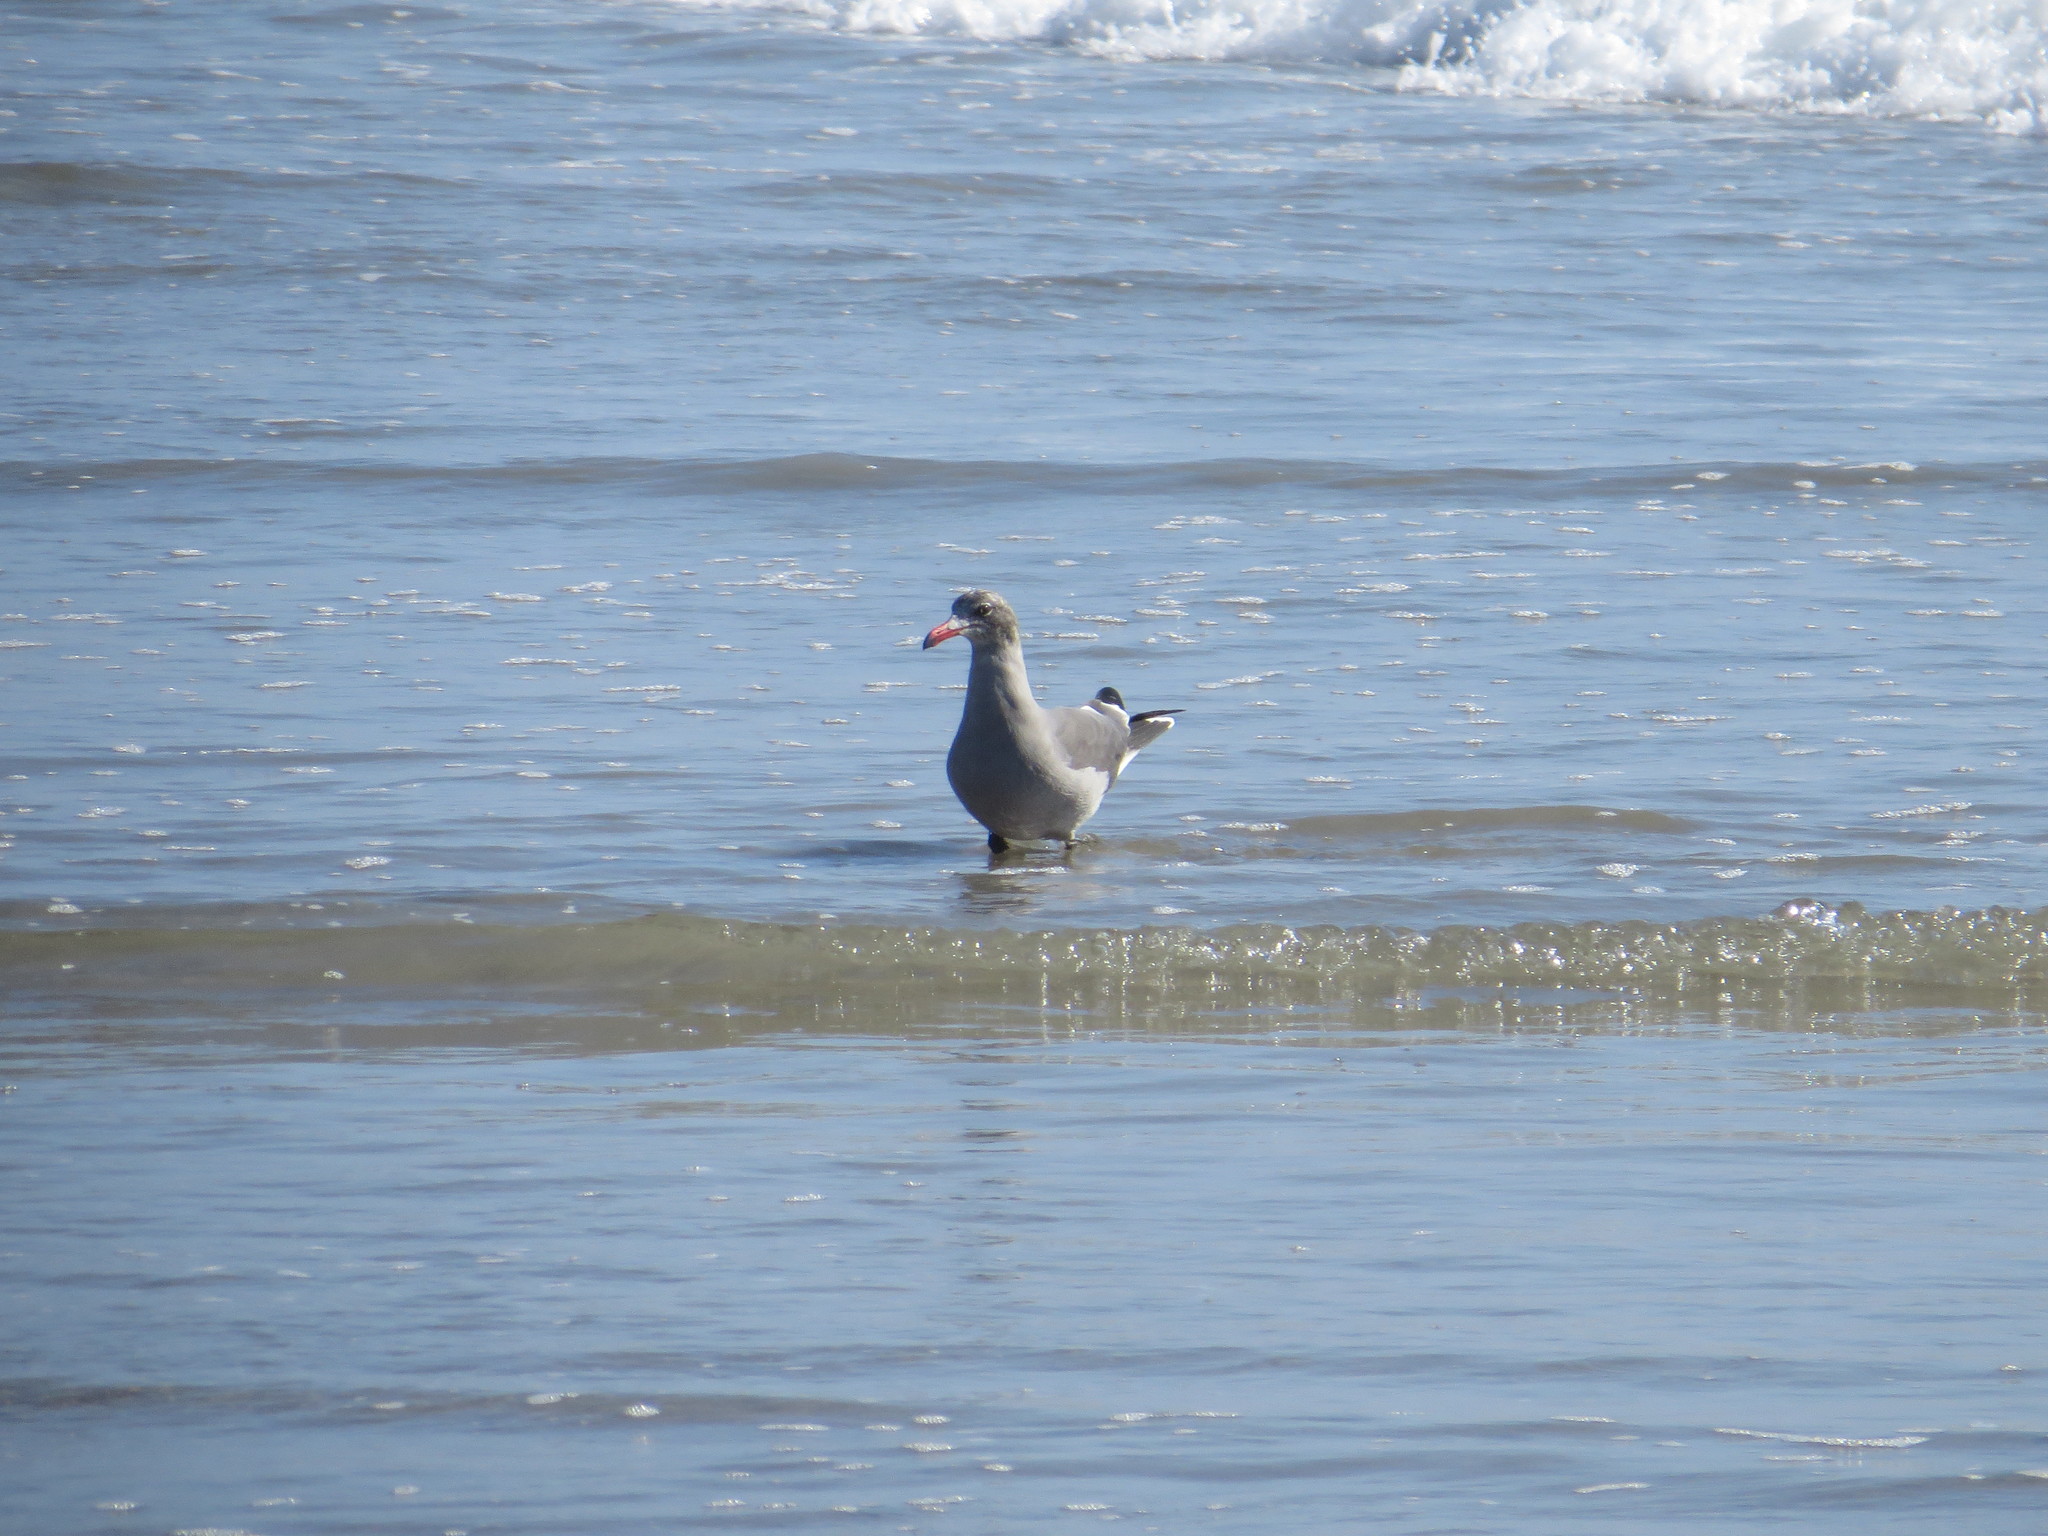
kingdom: Animalia
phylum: Chordata
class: Aves
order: Charadriiformes
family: Laridae
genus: Larus
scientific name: Larus heermanni
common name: Heermann's gull
